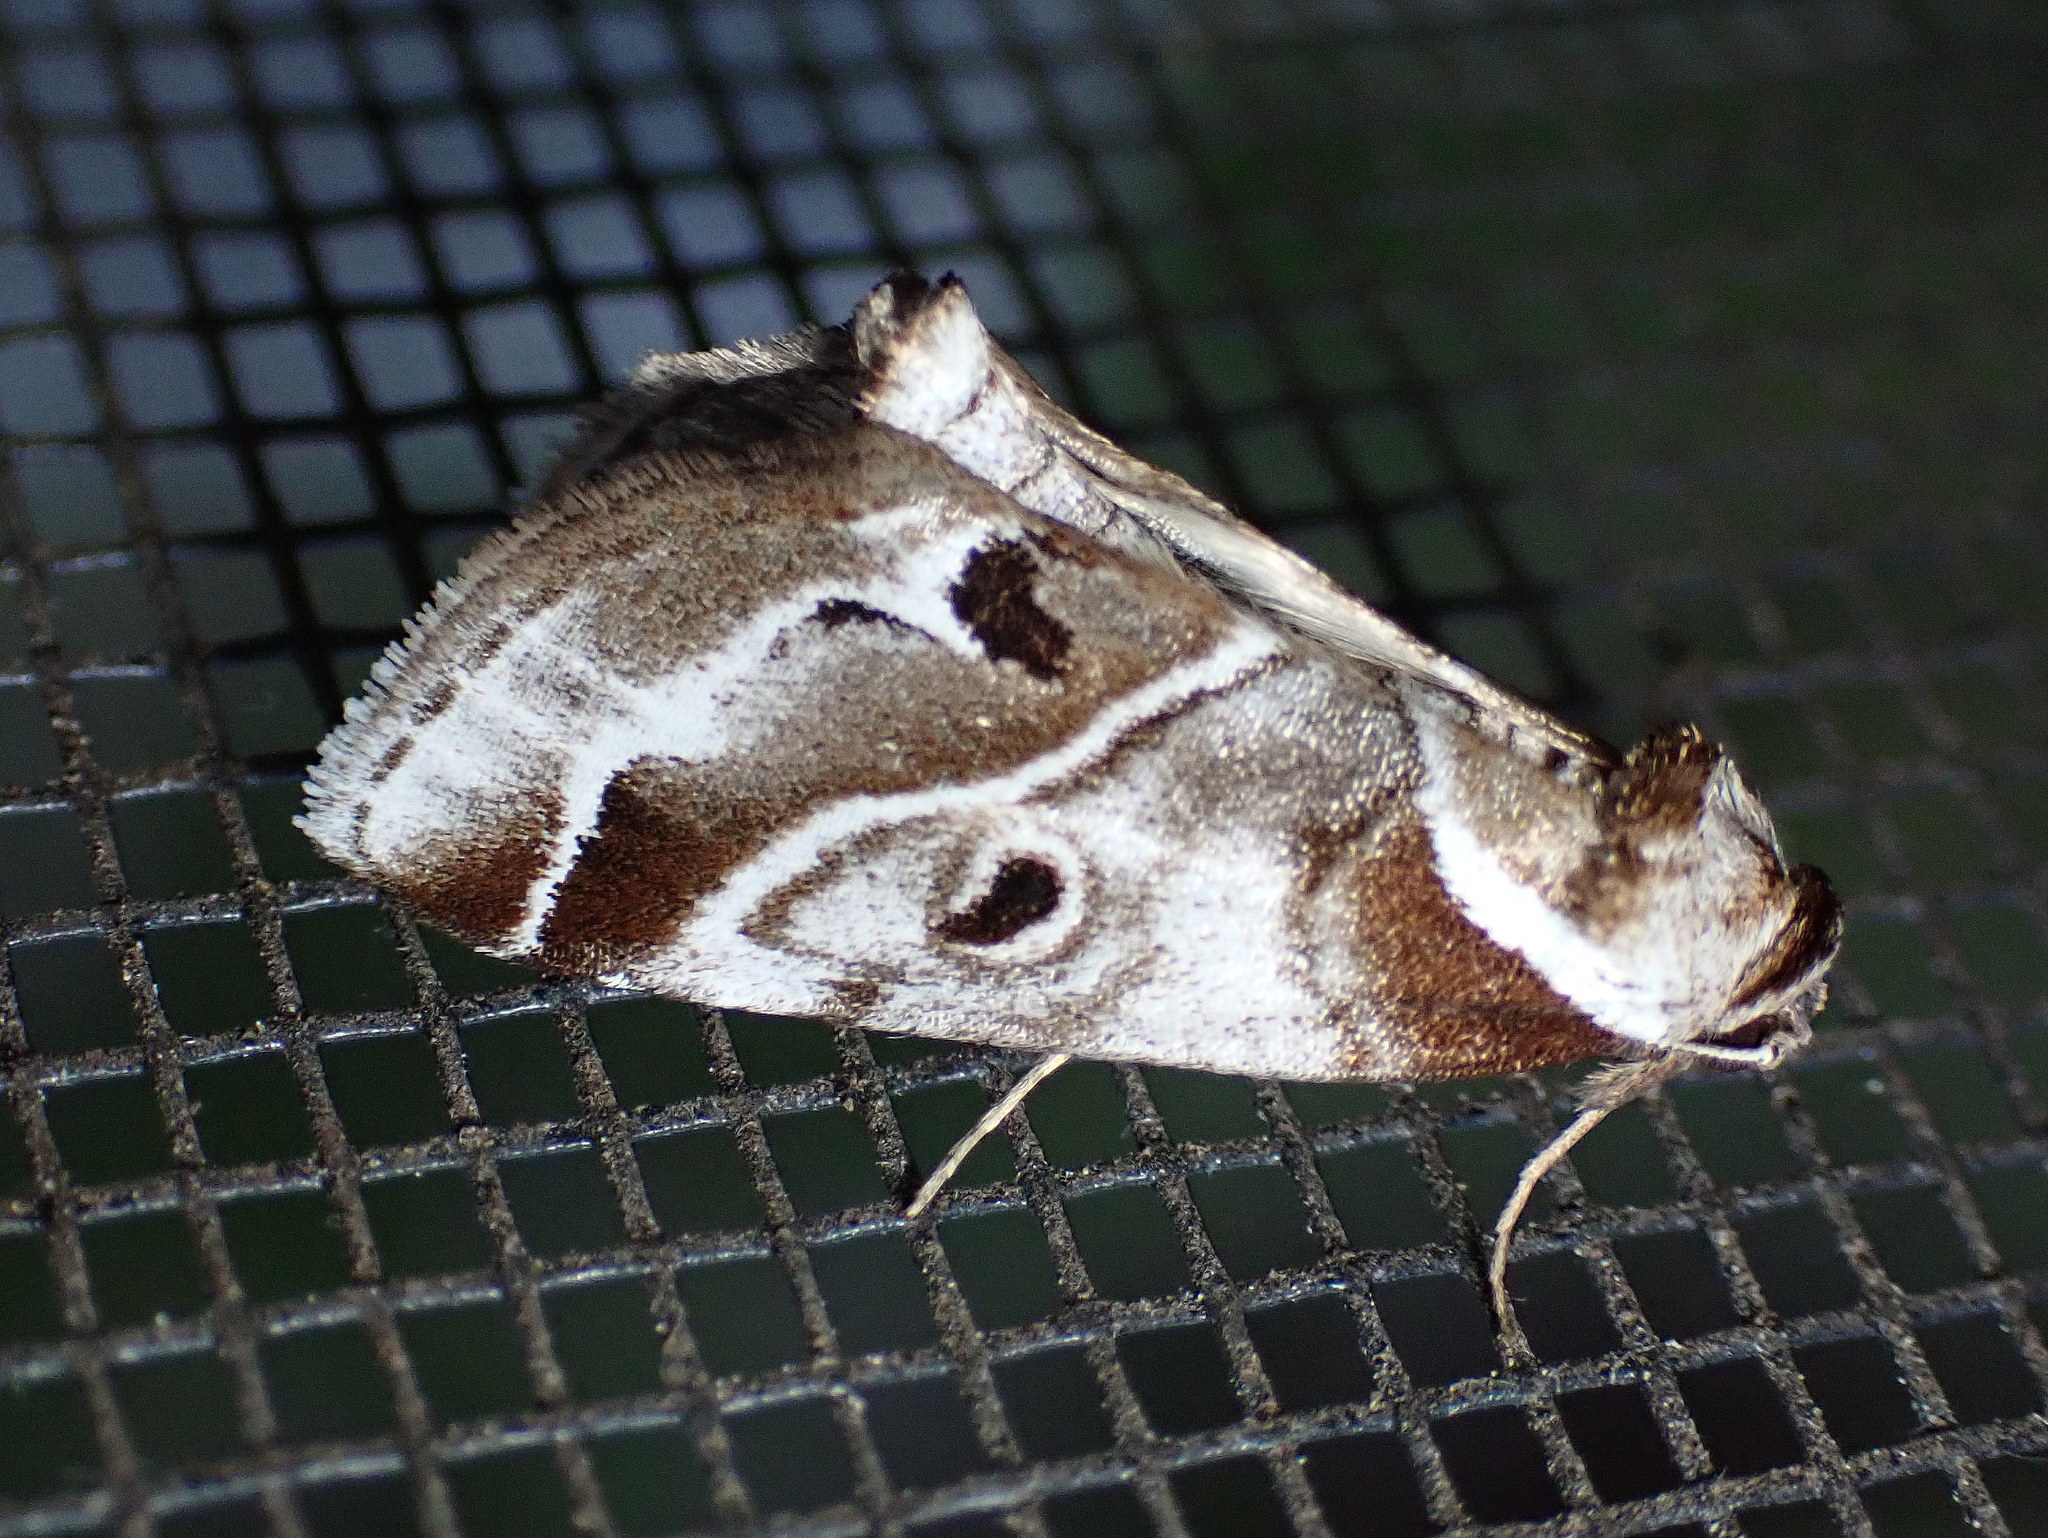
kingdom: Animalia
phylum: Arthropoda
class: Insecta
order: Lepidoptera
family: Nolidae
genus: Baileya
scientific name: Baileya doubledayi
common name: Doubleday's baileya moth
